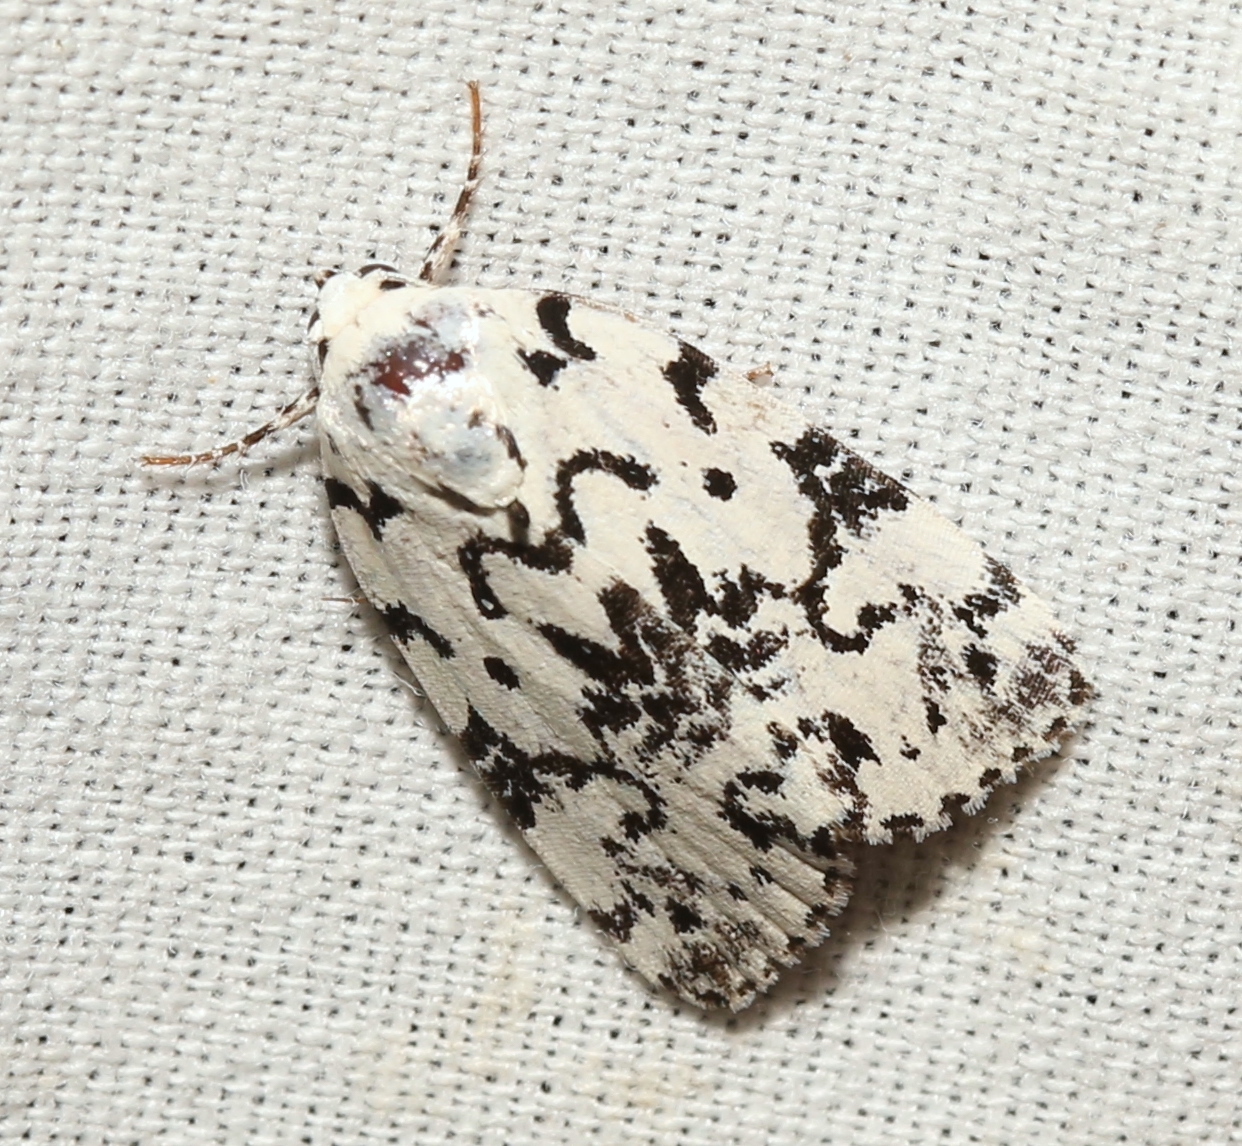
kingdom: Animalia
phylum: Arthropoda
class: Insecta
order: Lepidoptera
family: Noctuidae
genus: Polygrammate
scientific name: Polygrammate hebraeicum
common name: Hebrew moth
